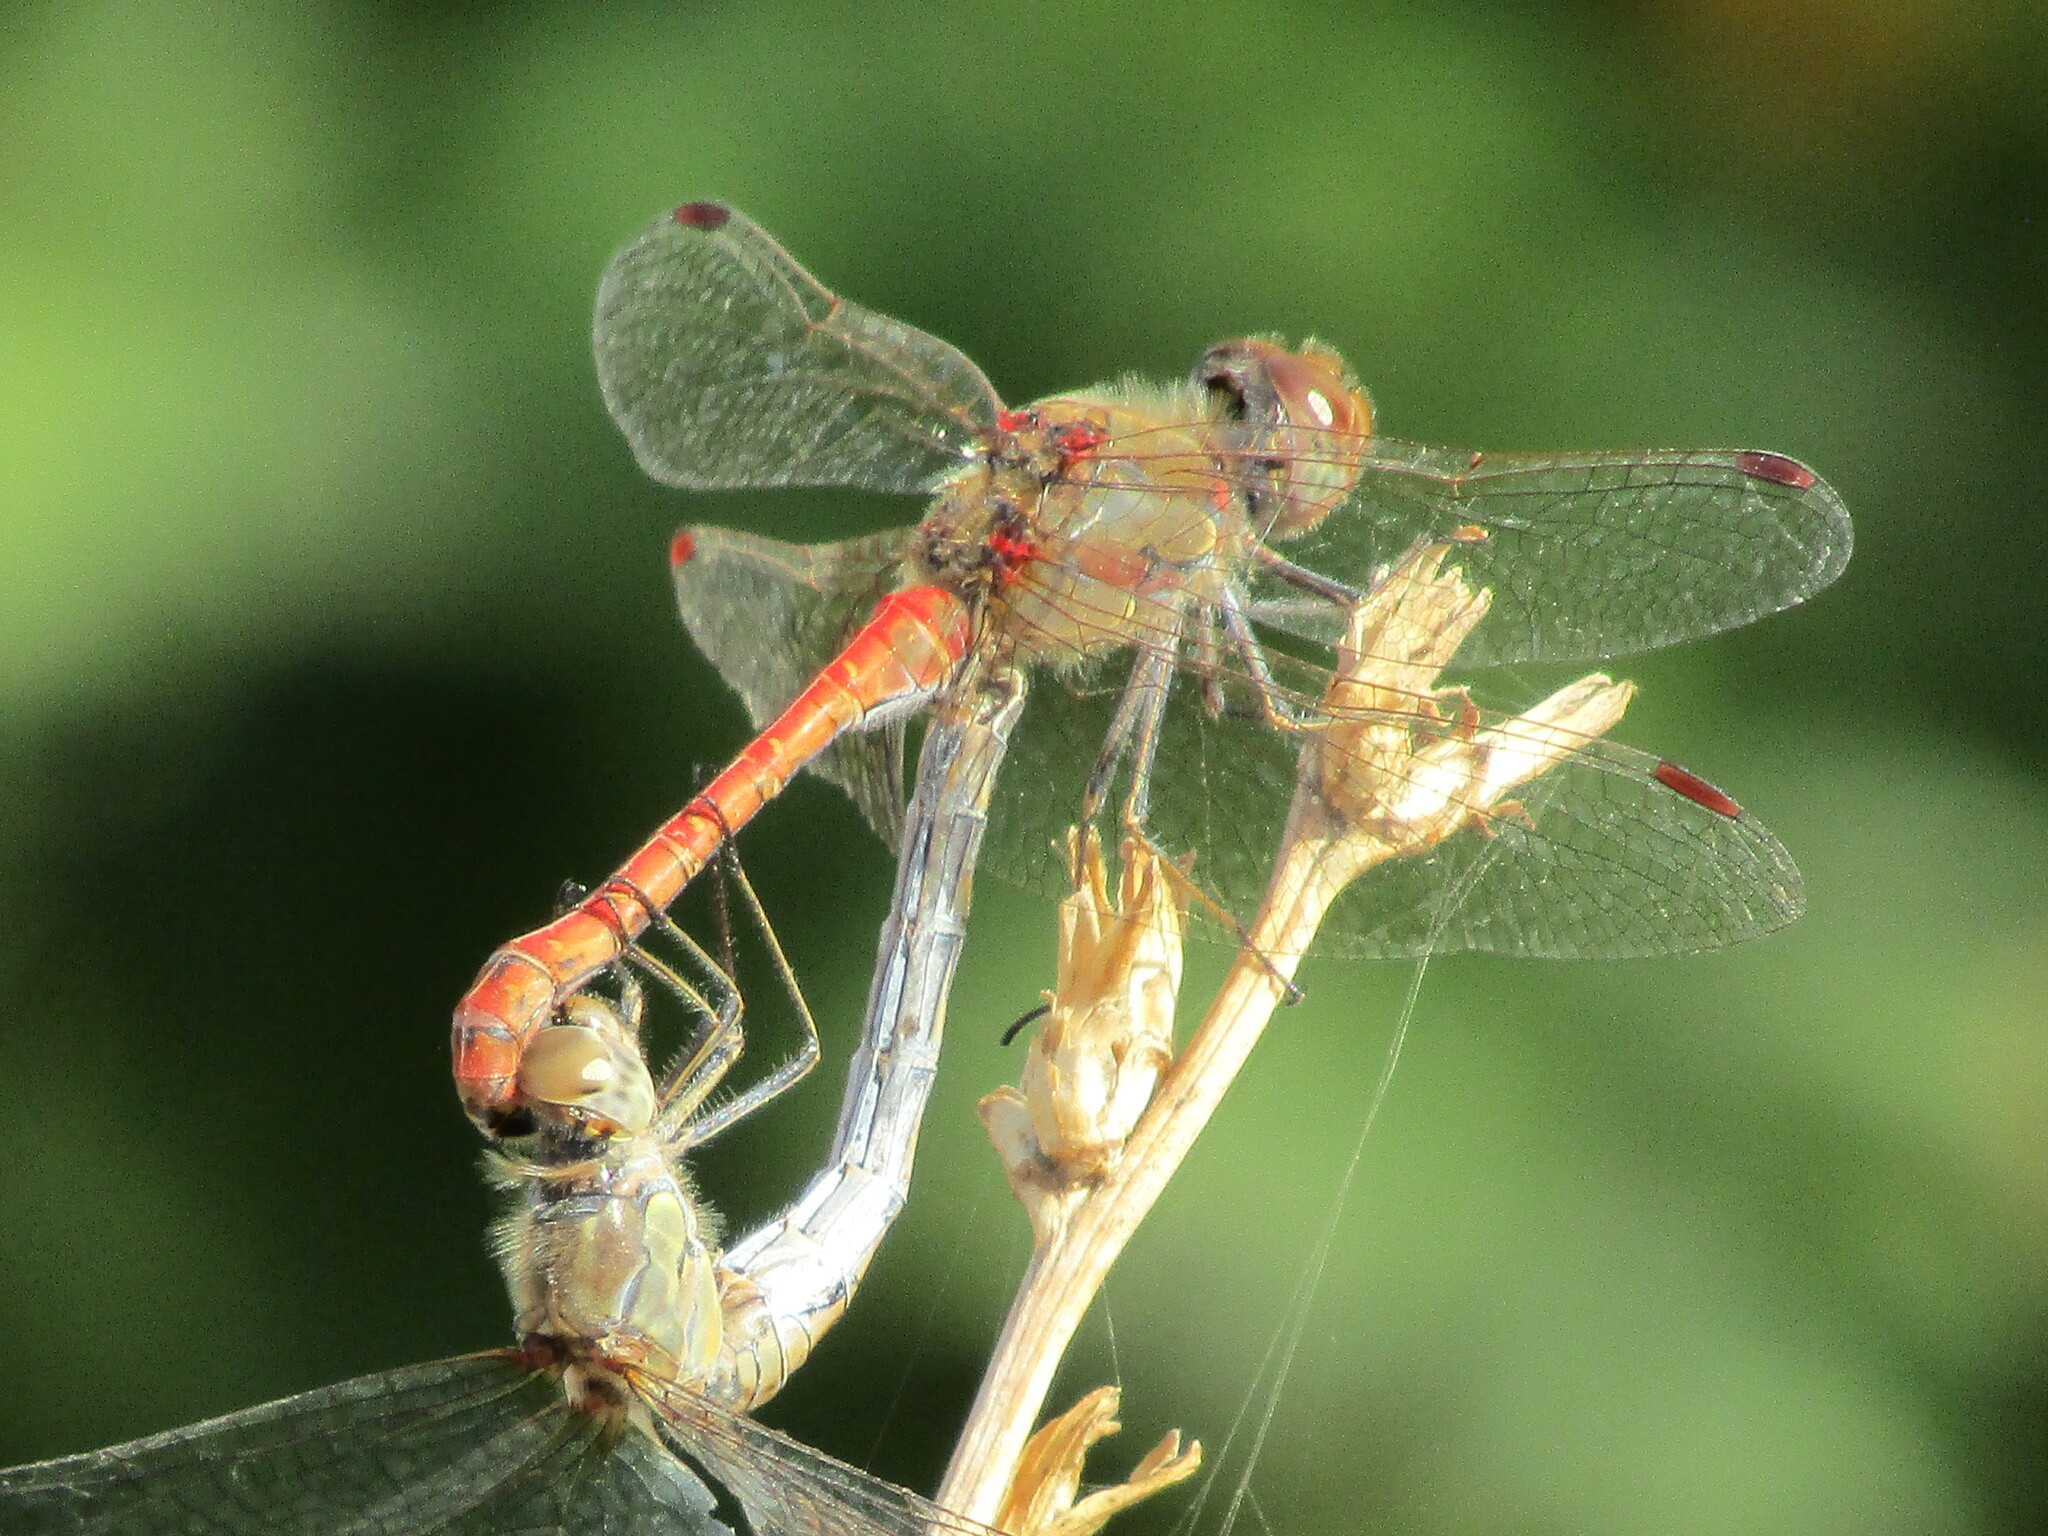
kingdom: Animalia
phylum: Arthropoda
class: Insecta
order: Odonata
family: Libellulidae
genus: Sympetrum
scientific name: Sympetrum striolatum
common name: Common darter
